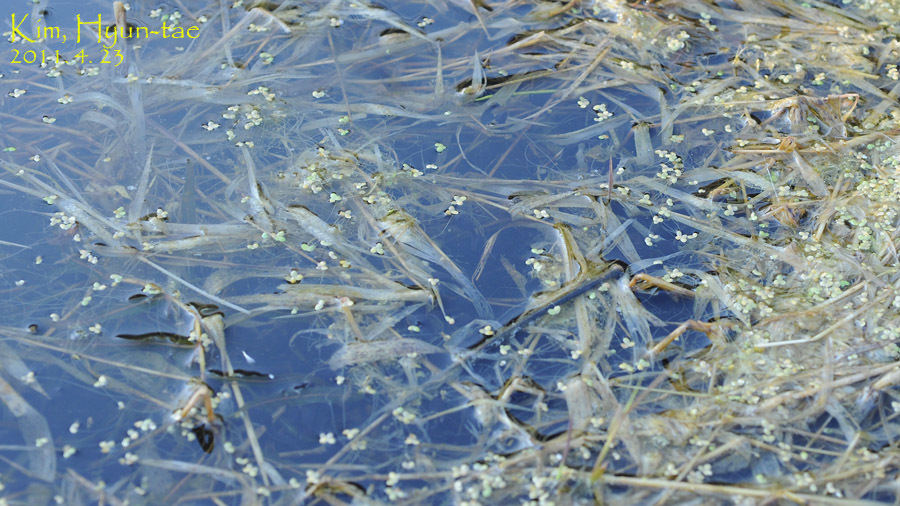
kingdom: Animalia
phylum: Chordata
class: Amphibia
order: Anura
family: Bufonidae
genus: Bufo
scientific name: Bufo gargarizans
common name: Asiatic toad
